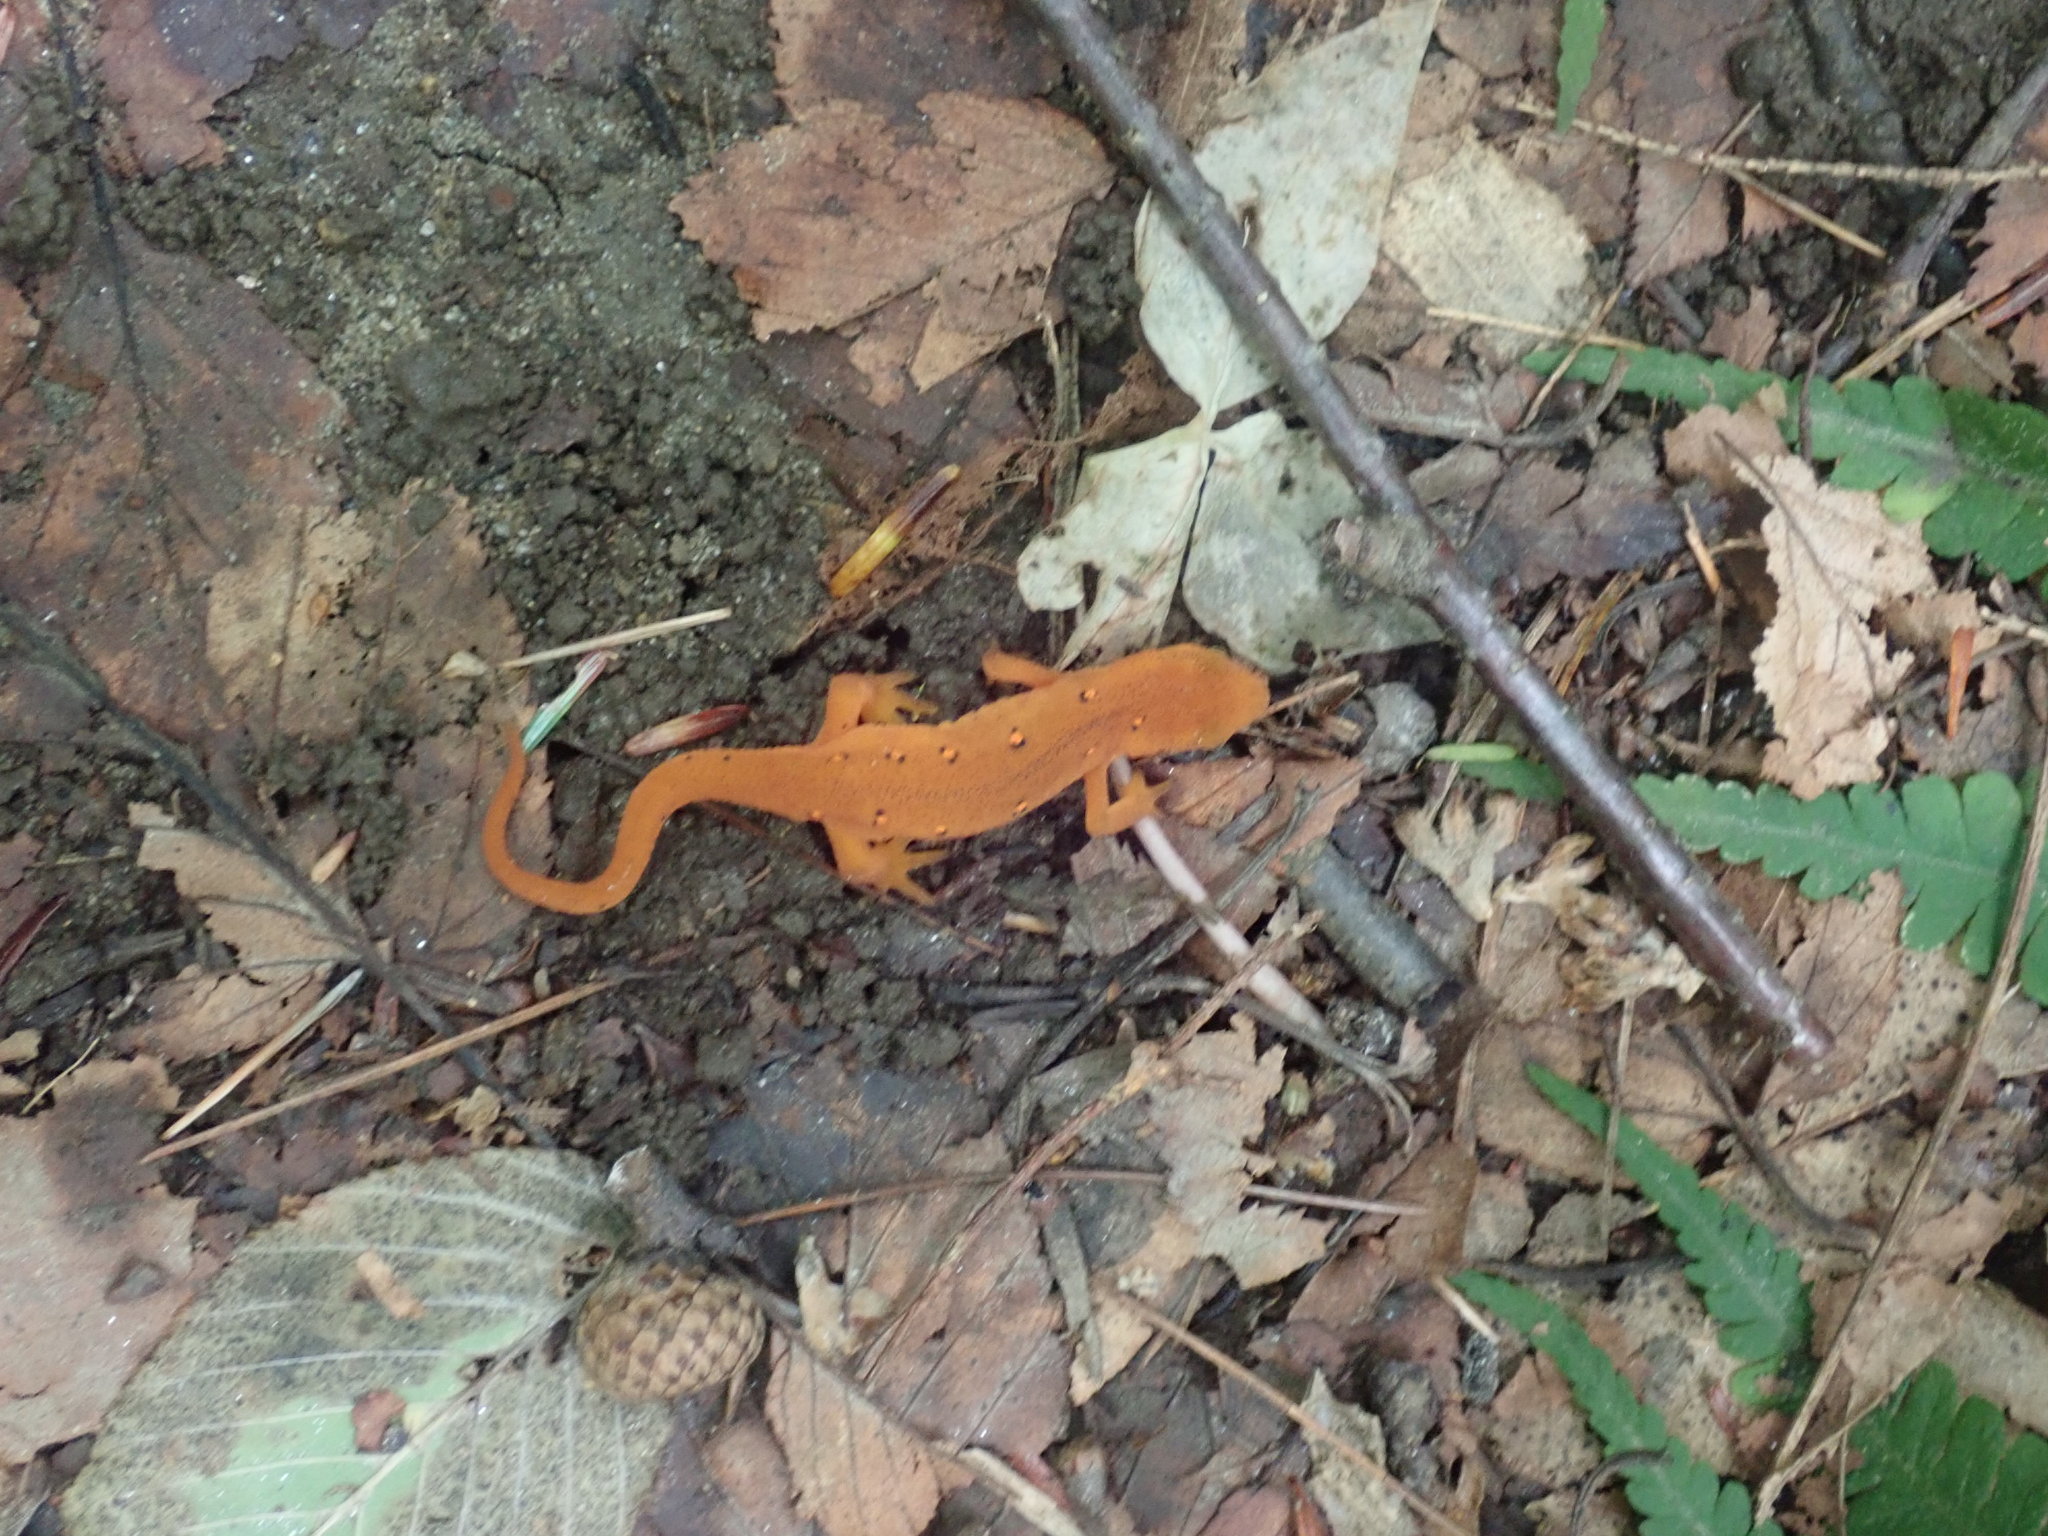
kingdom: Animalia
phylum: Chordata
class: Amphibia
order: Caudata
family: Salamandridae
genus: Notophthalmus
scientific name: Notophthalmus viridescens
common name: Eastern newt
